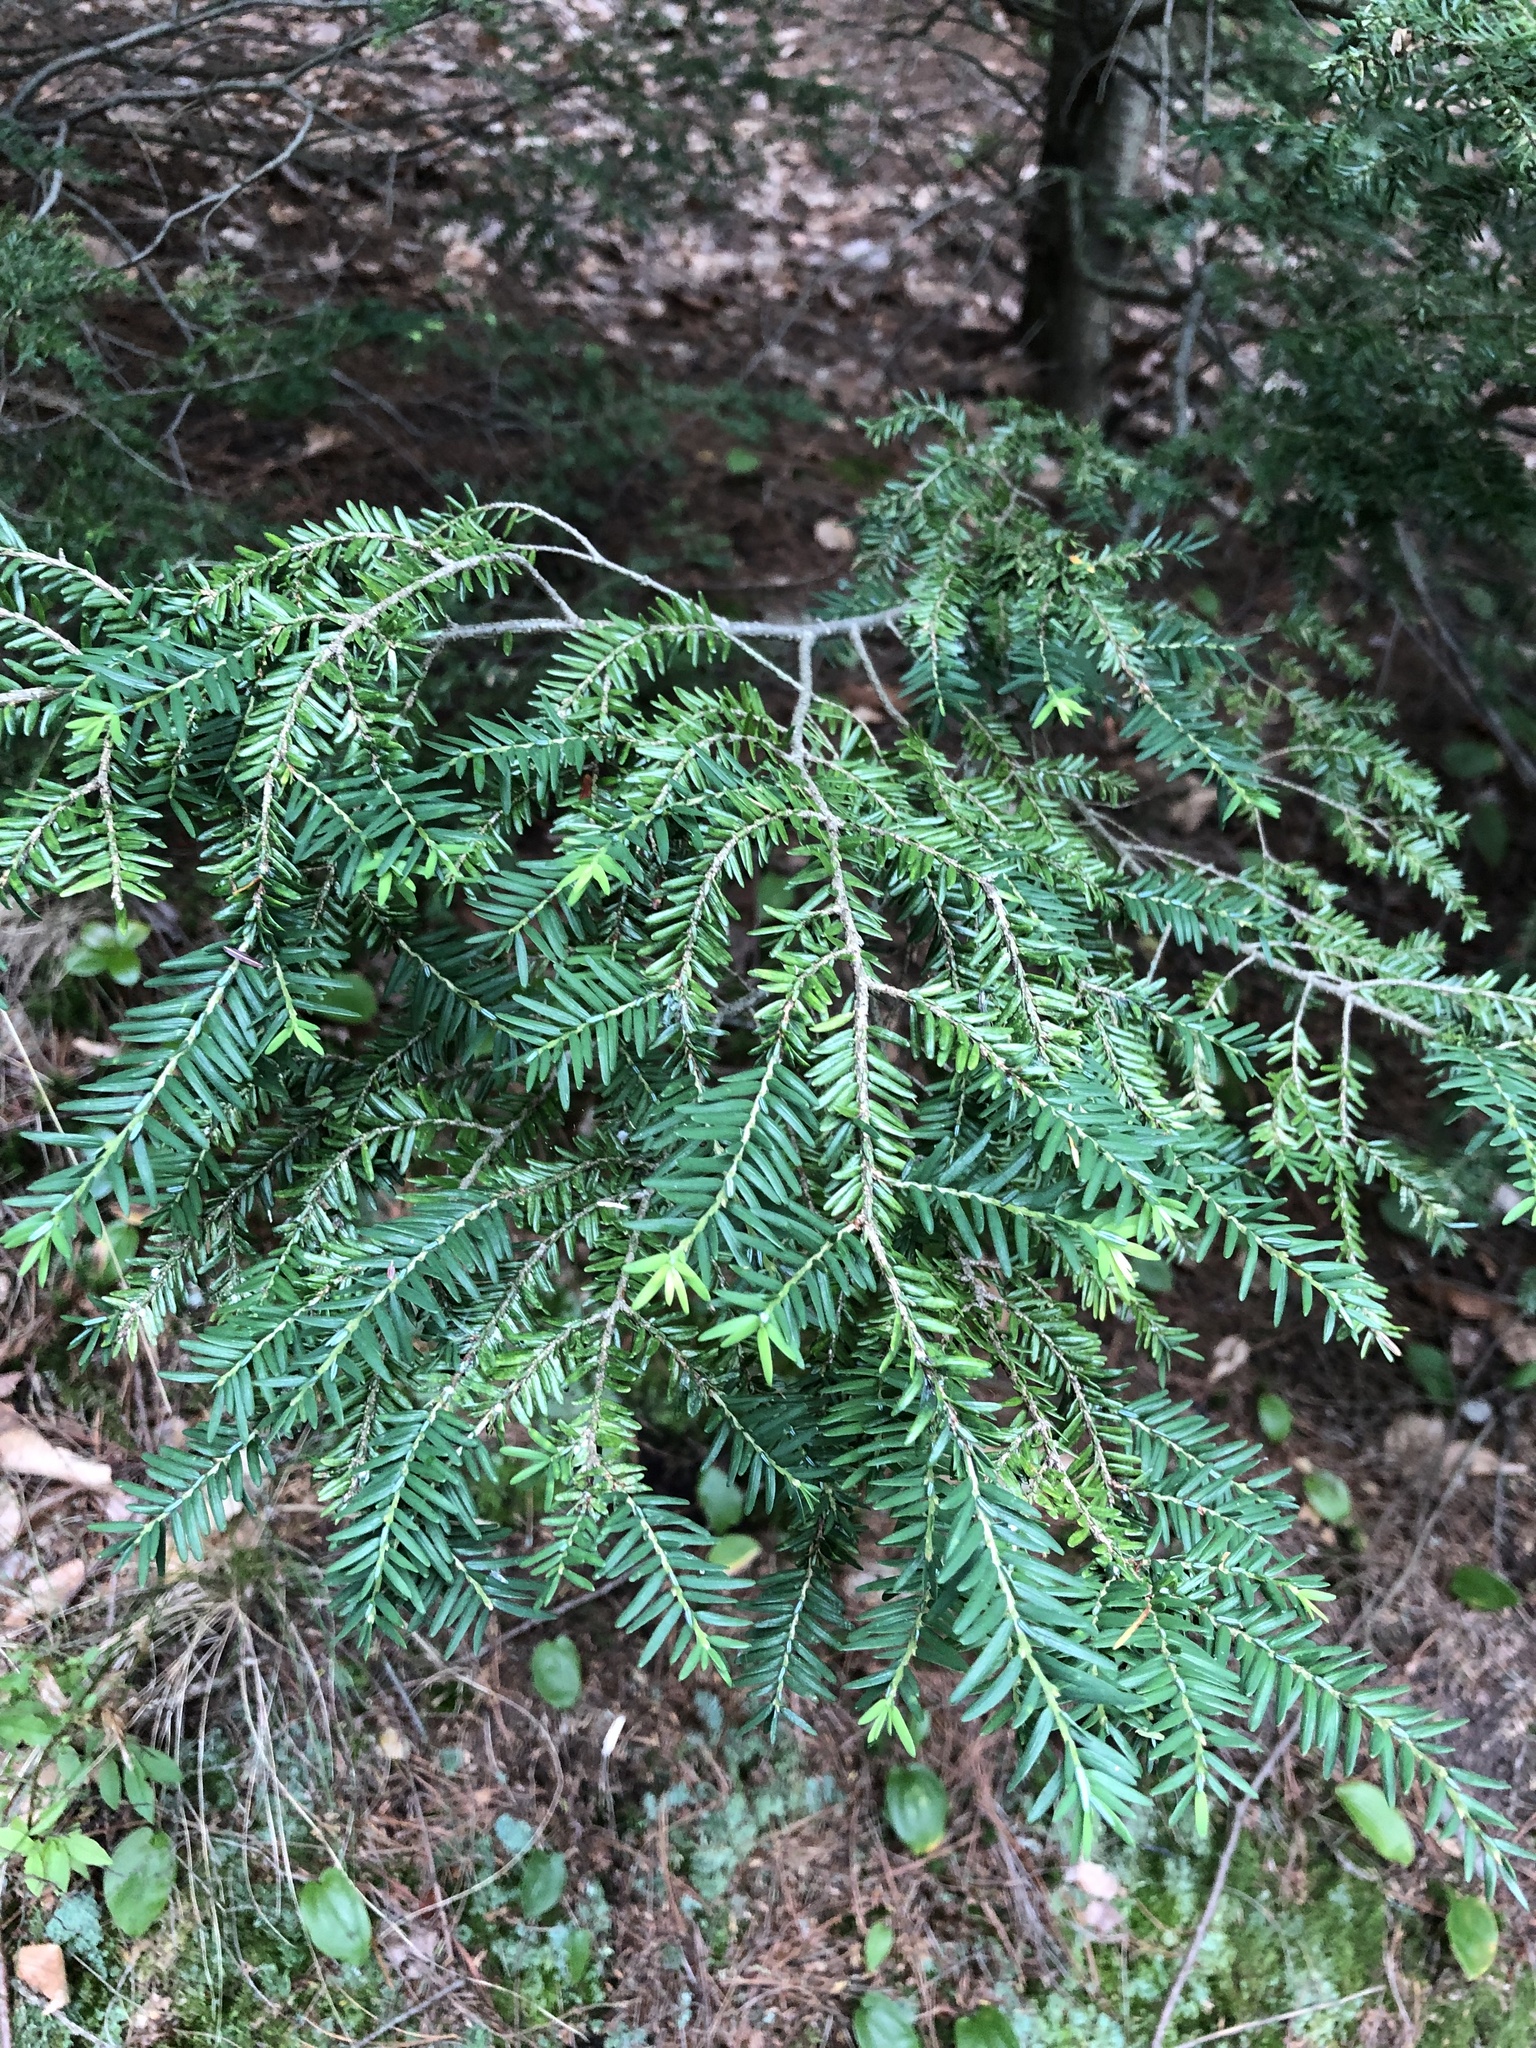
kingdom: Plantae
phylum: Tracheophyta
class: Pinopsida
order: Pinales
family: Pinaceae
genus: Tsuga
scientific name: Tsuga canadensis
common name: Eastern hemlock
